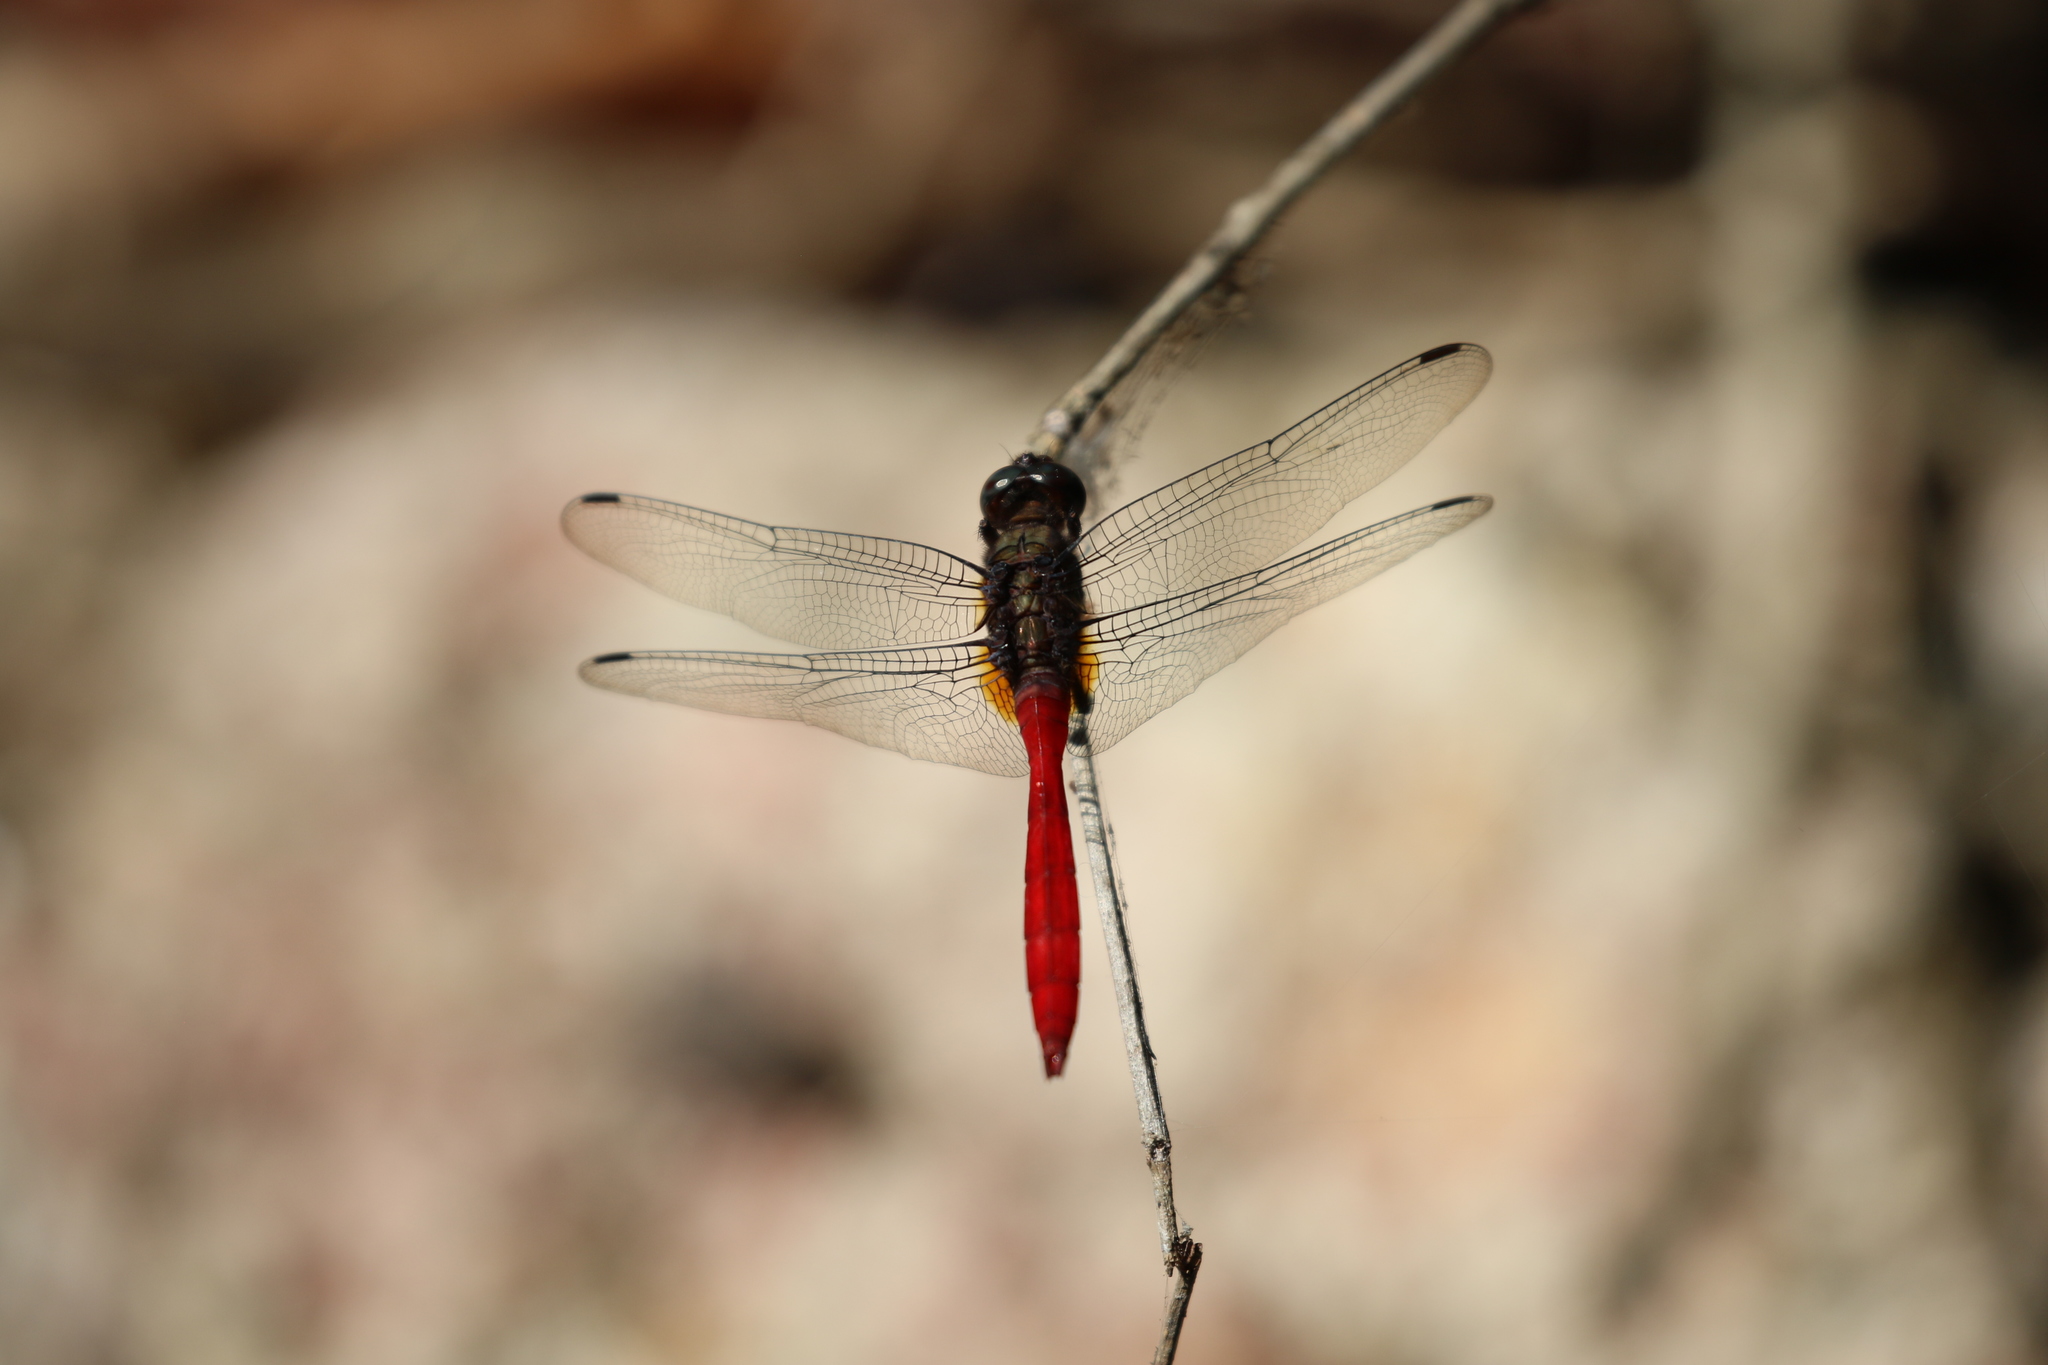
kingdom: Animalia
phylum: Arthropoda
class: Insecta
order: Odonata
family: Libellulidae
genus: Orthetrum
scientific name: Orthetrum villosovittatum
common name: Firery skimmer
